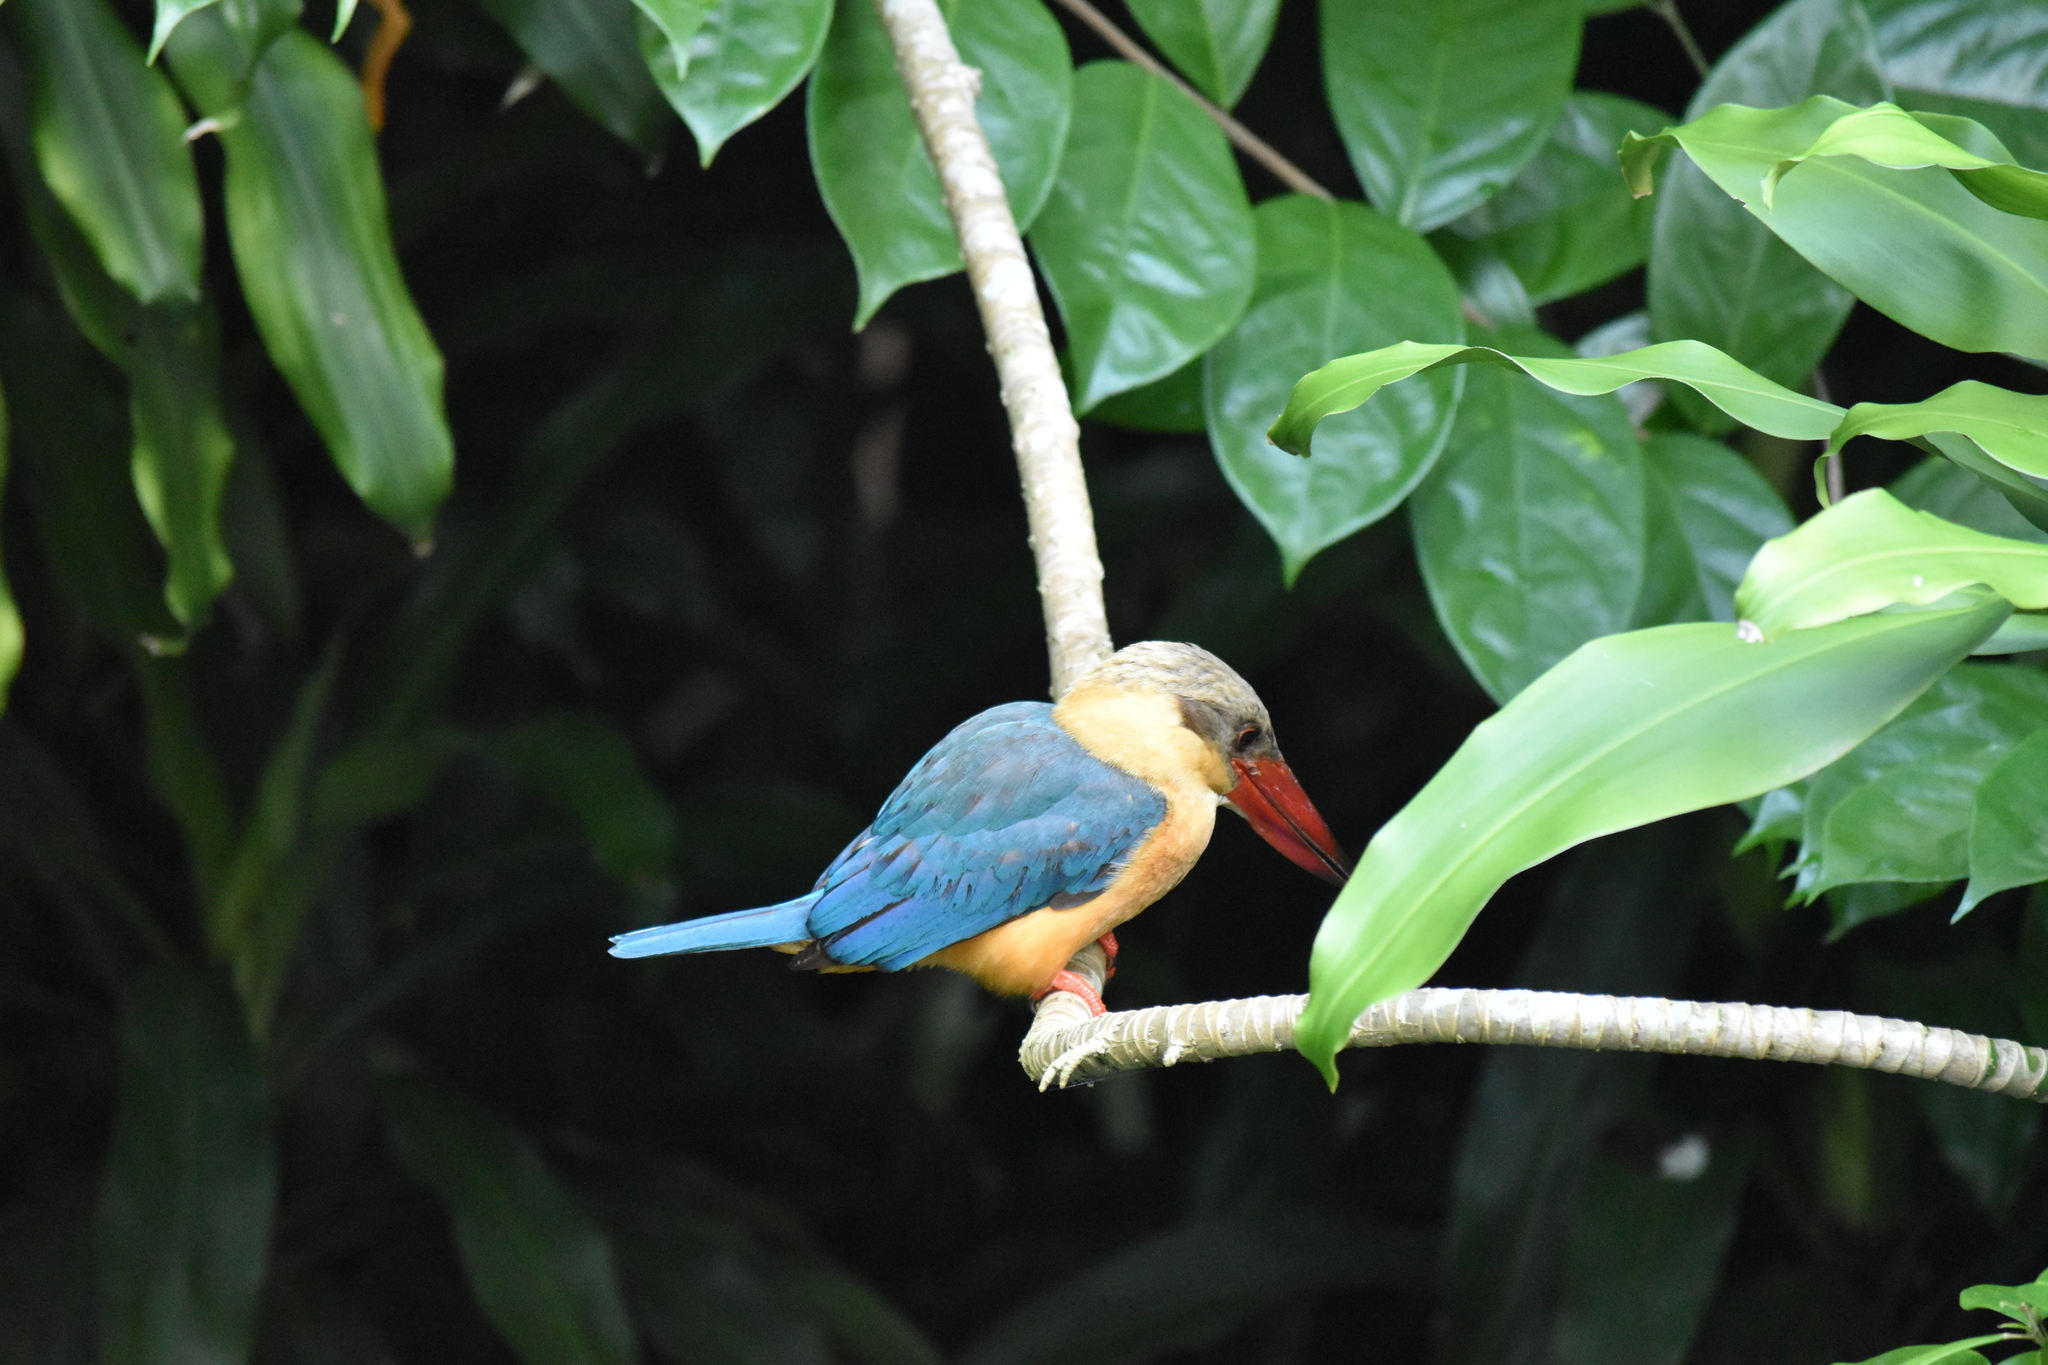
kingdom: Animalia
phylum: Chordata
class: Aves
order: Coraciiformes
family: Alcedinidae
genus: Pelargopsis
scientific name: Pelargopsis capensis
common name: Stork-billed kingfisher
